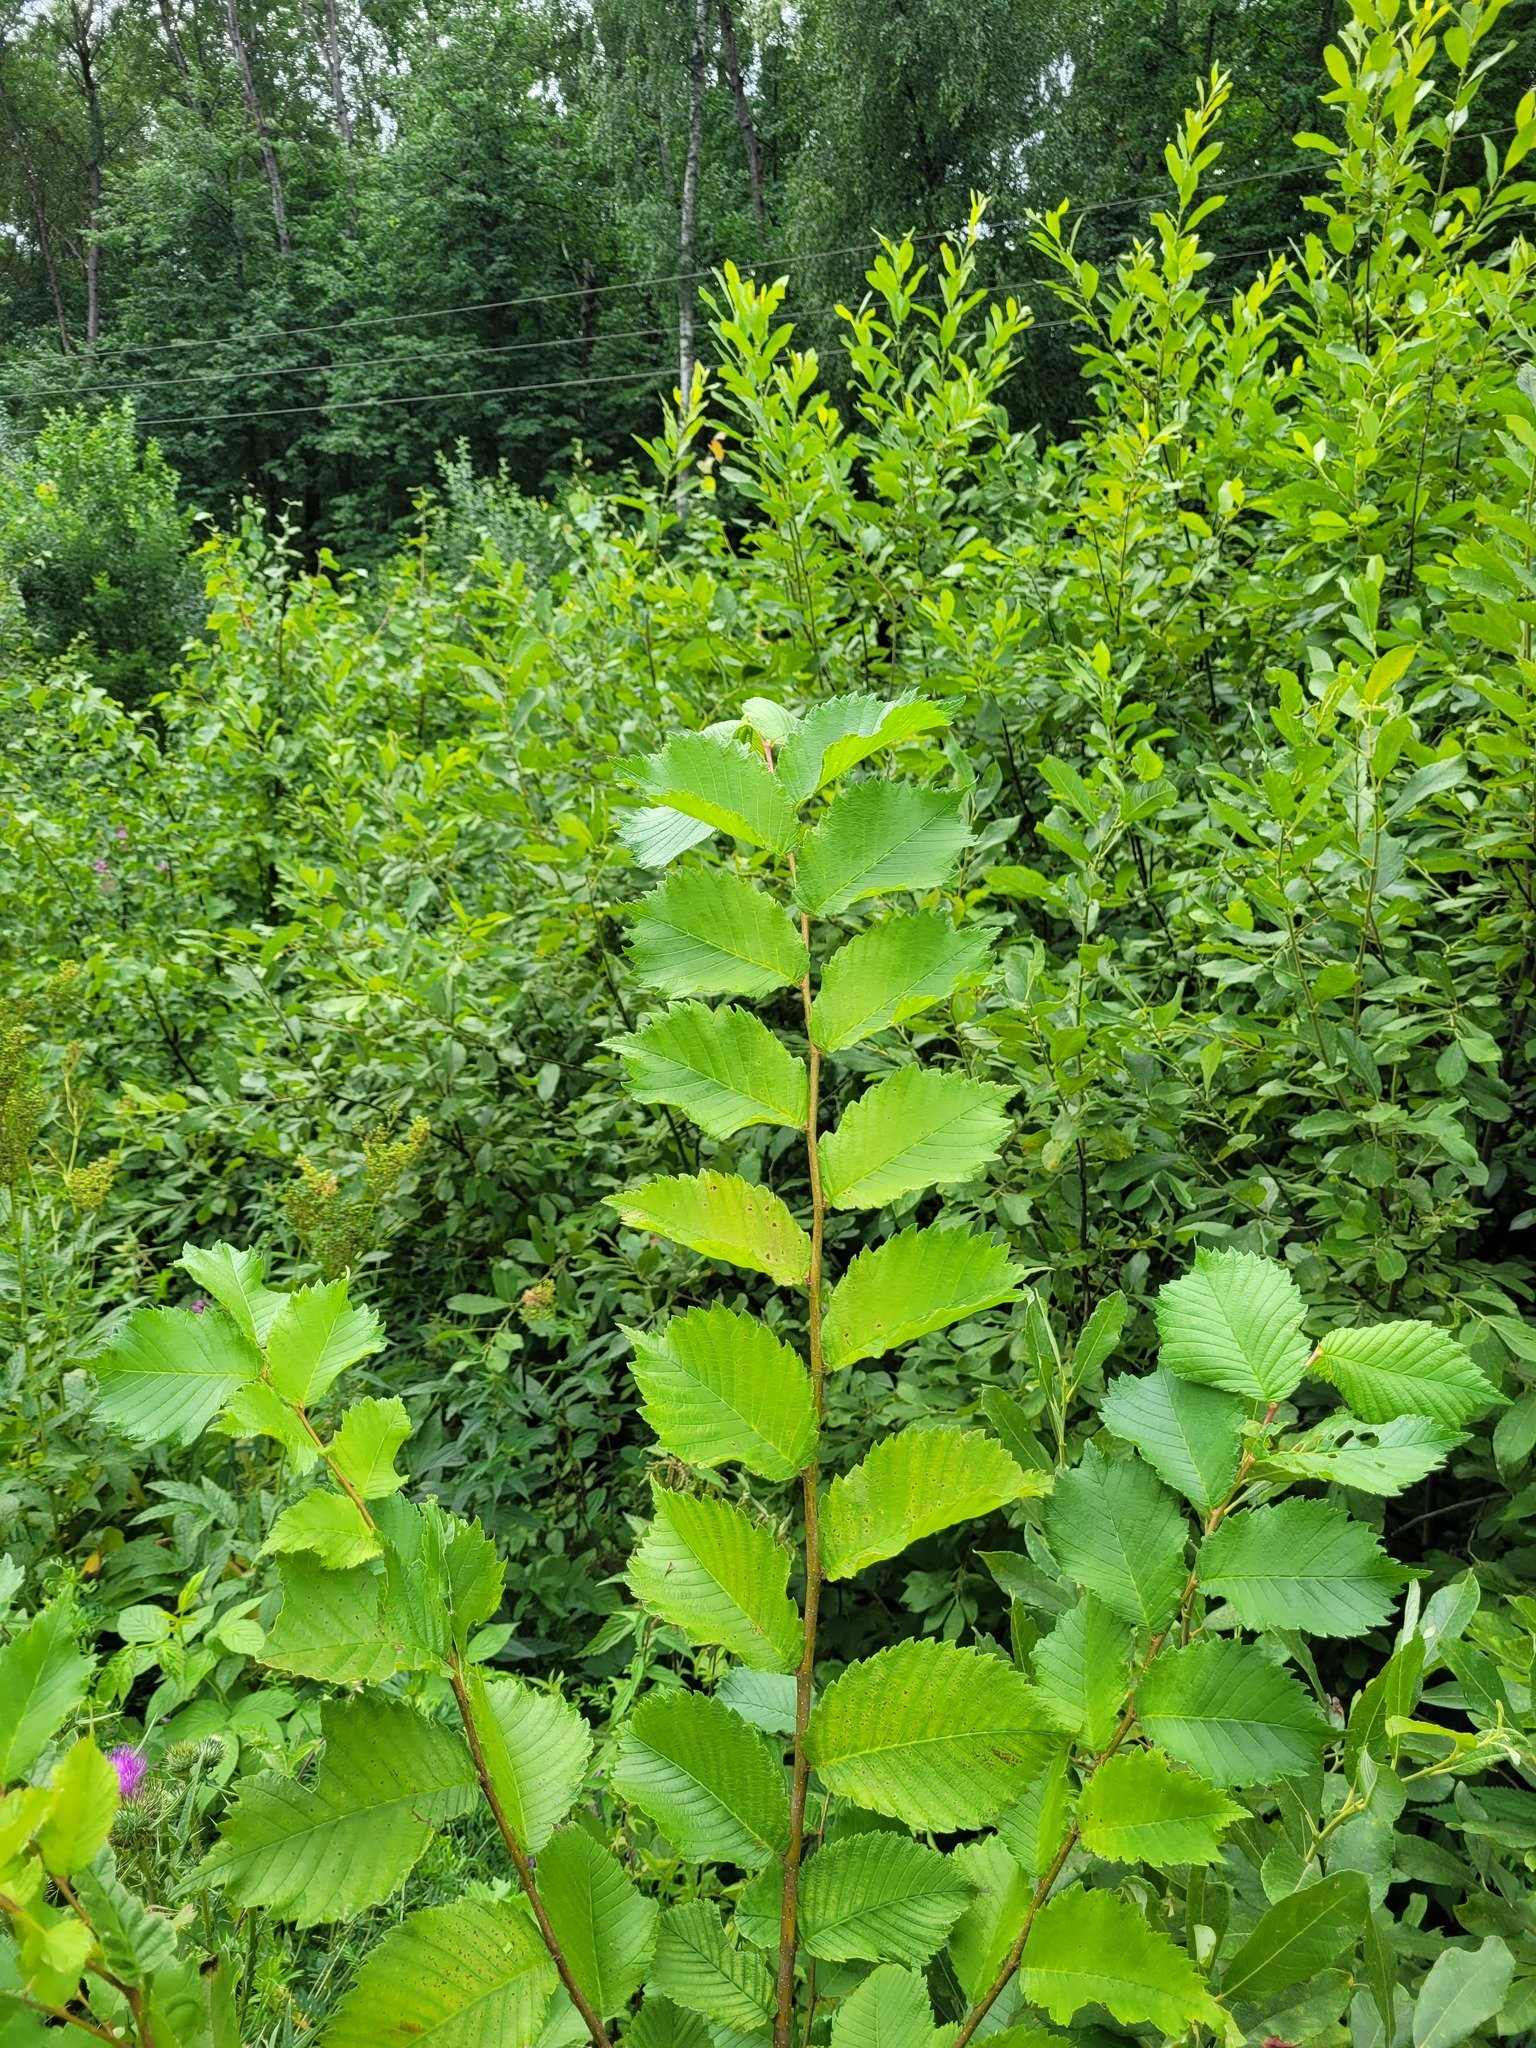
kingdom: Plantae
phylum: Tracheophyta
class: Magnoliopsida
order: Rosales
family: Ulmaceae
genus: Ulmus
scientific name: Ulmus laevis
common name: European white-elm
